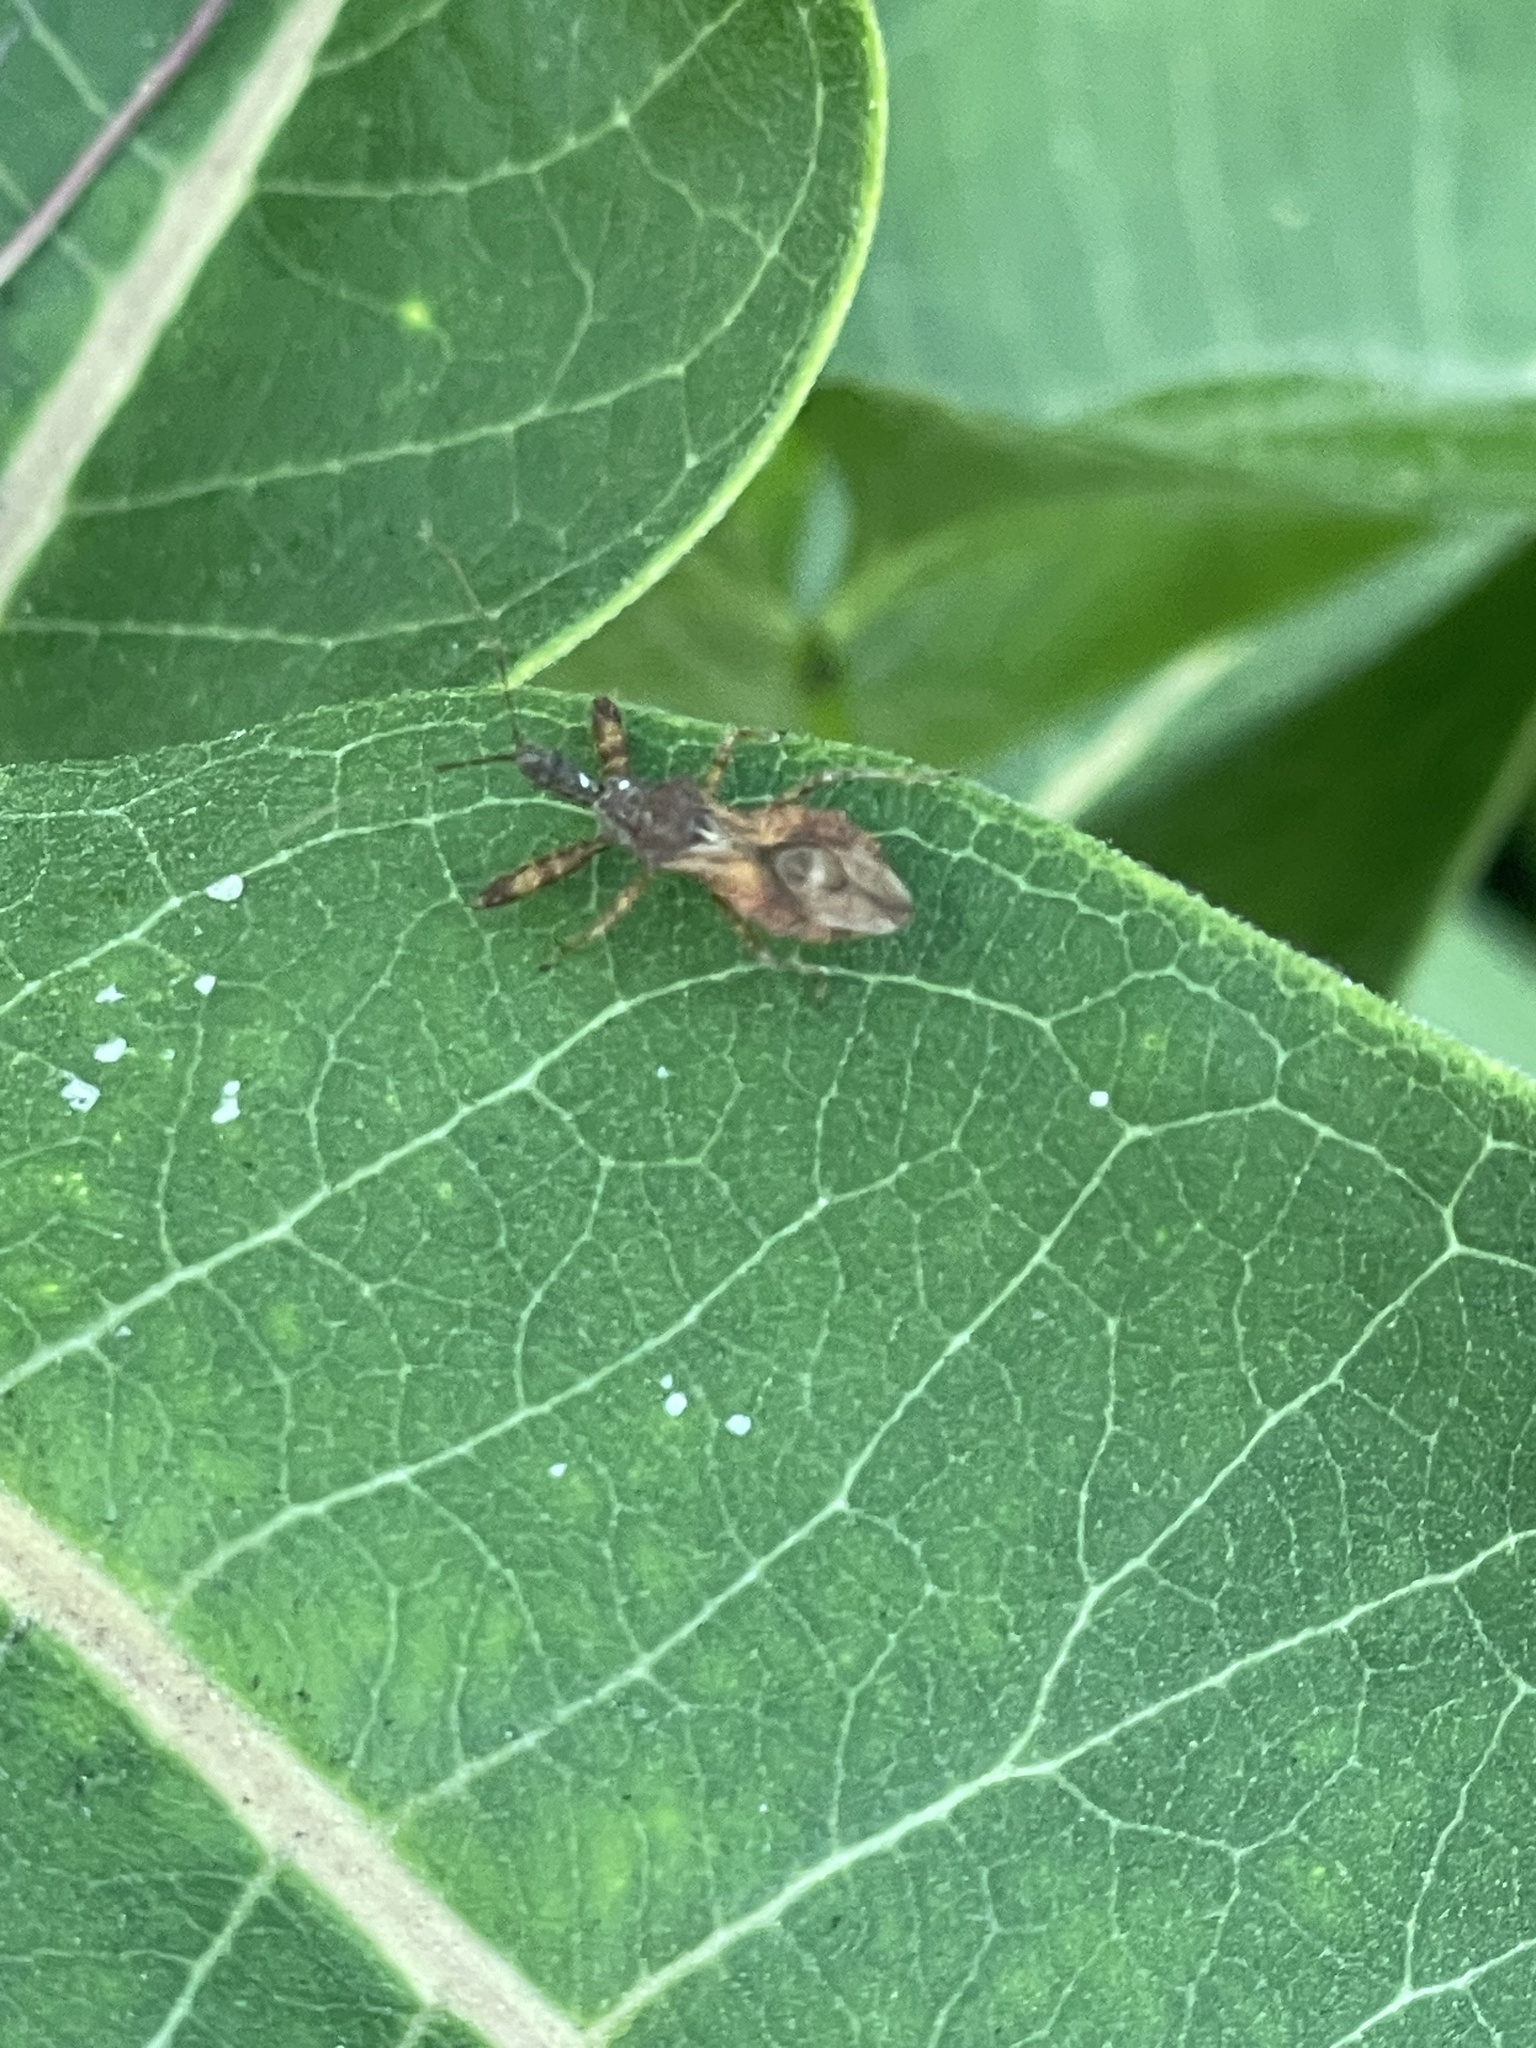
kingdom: Animalia
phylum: Arthropoda
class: Insecta
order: Hemiptera
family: Reduviidae
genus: Sinea
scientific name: Sinea spinipes
